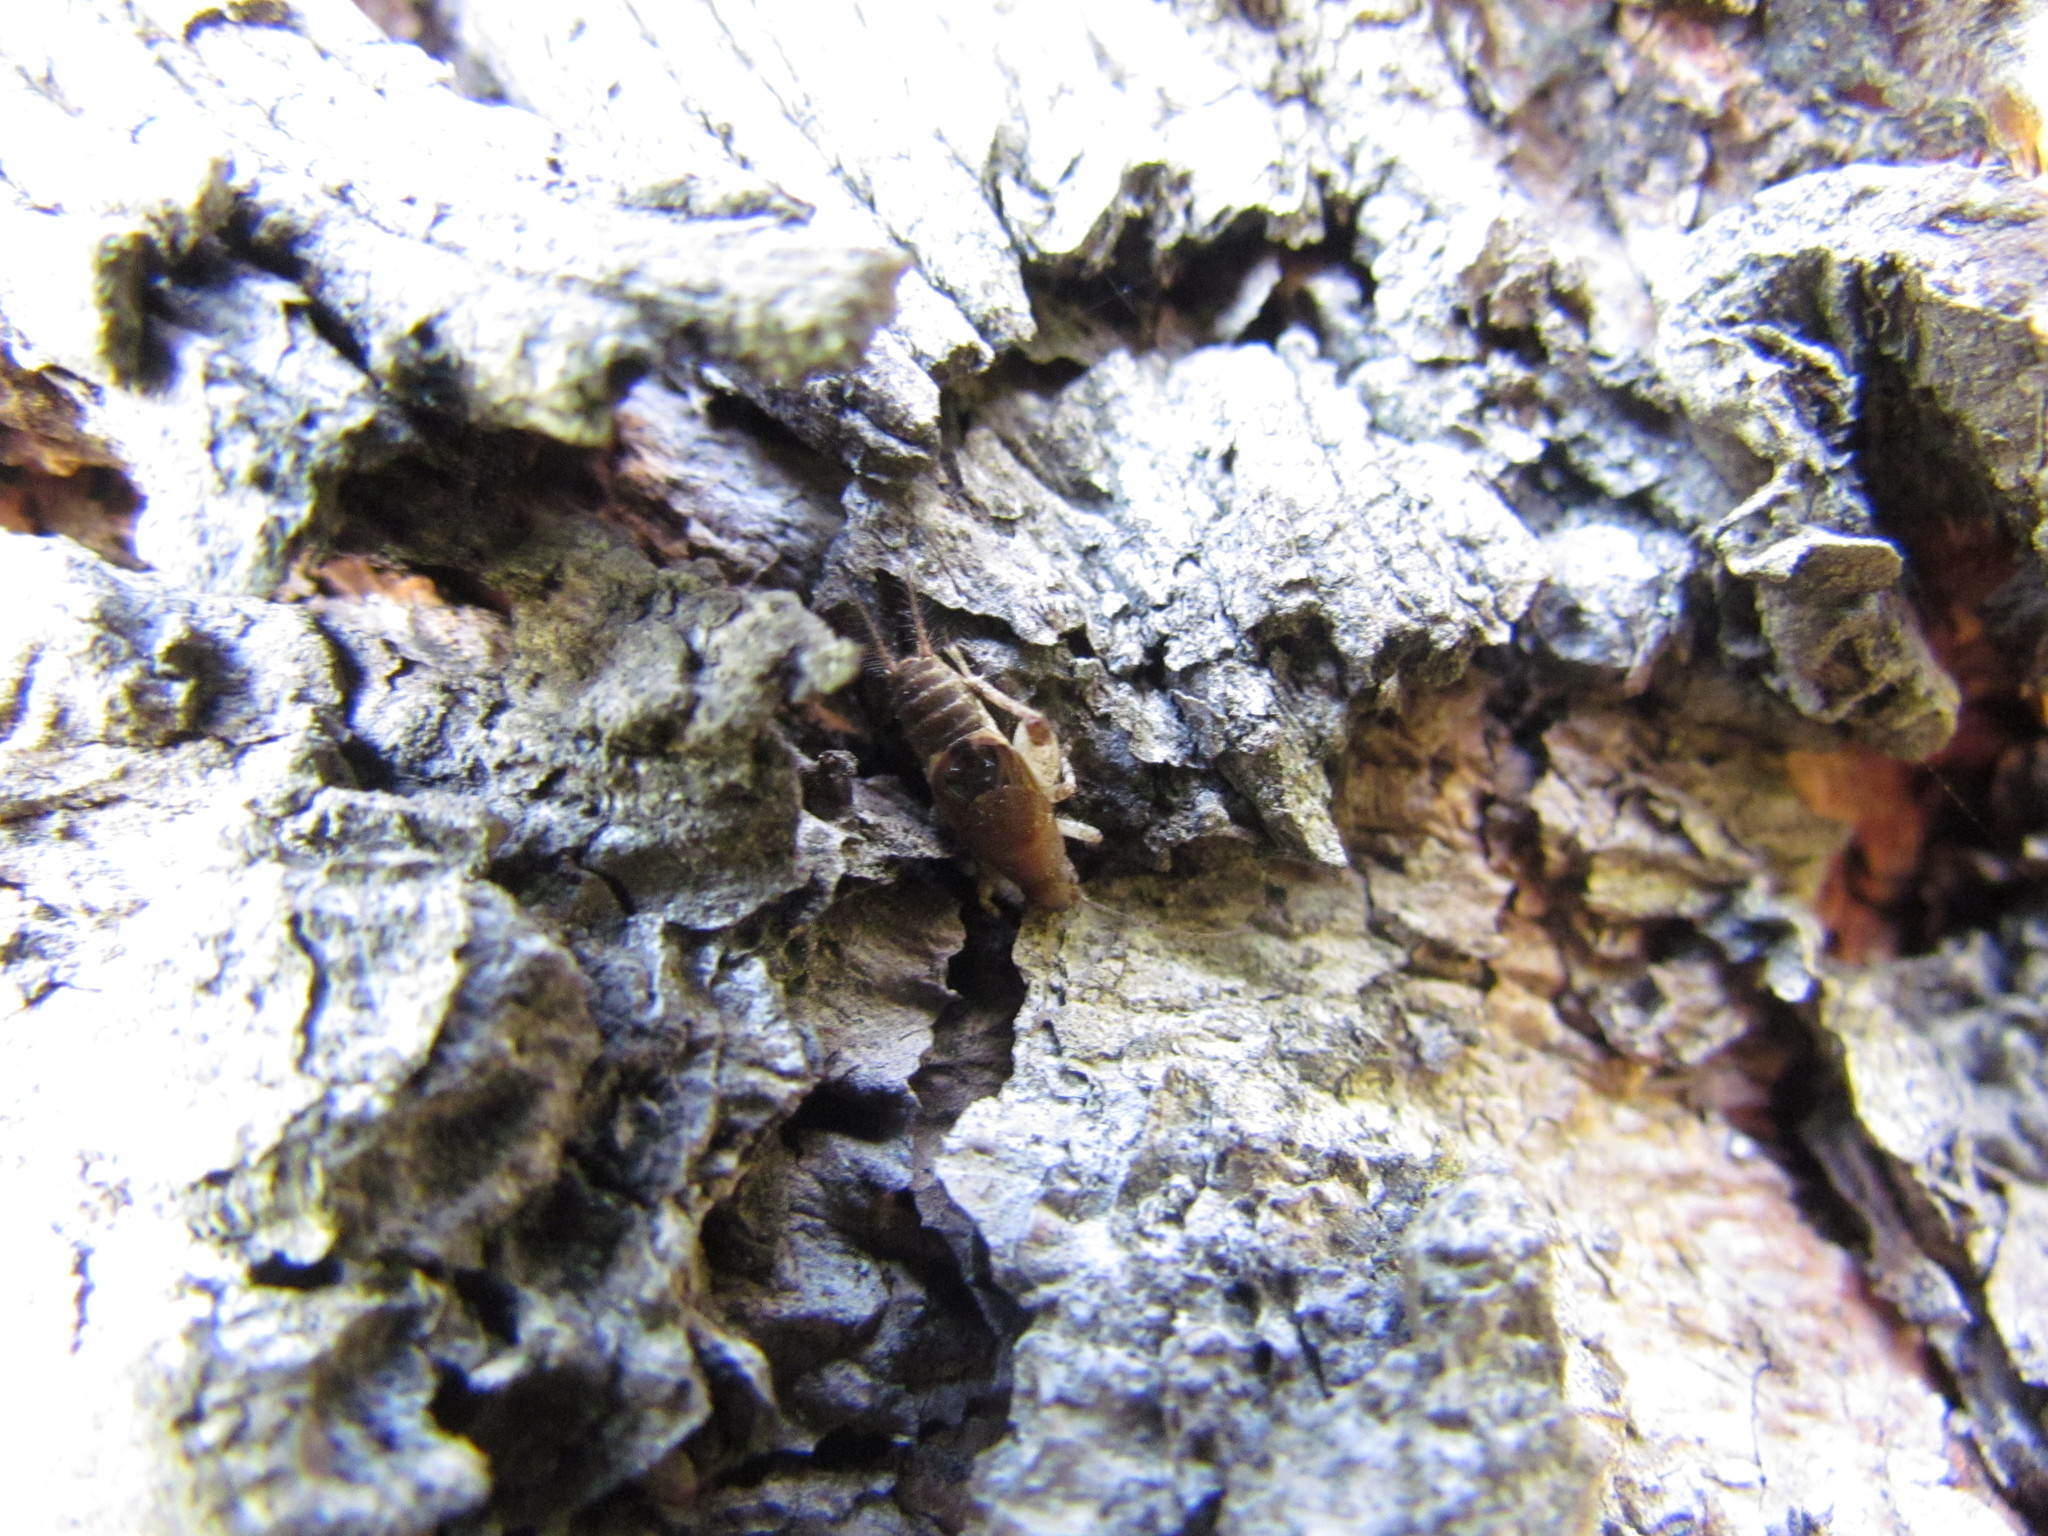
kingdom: Animalia
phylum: Arthropoda
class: Insecta
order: Orthoptera
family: Mogoplistidae
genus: Ornebius
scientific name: Ornebius alatus
